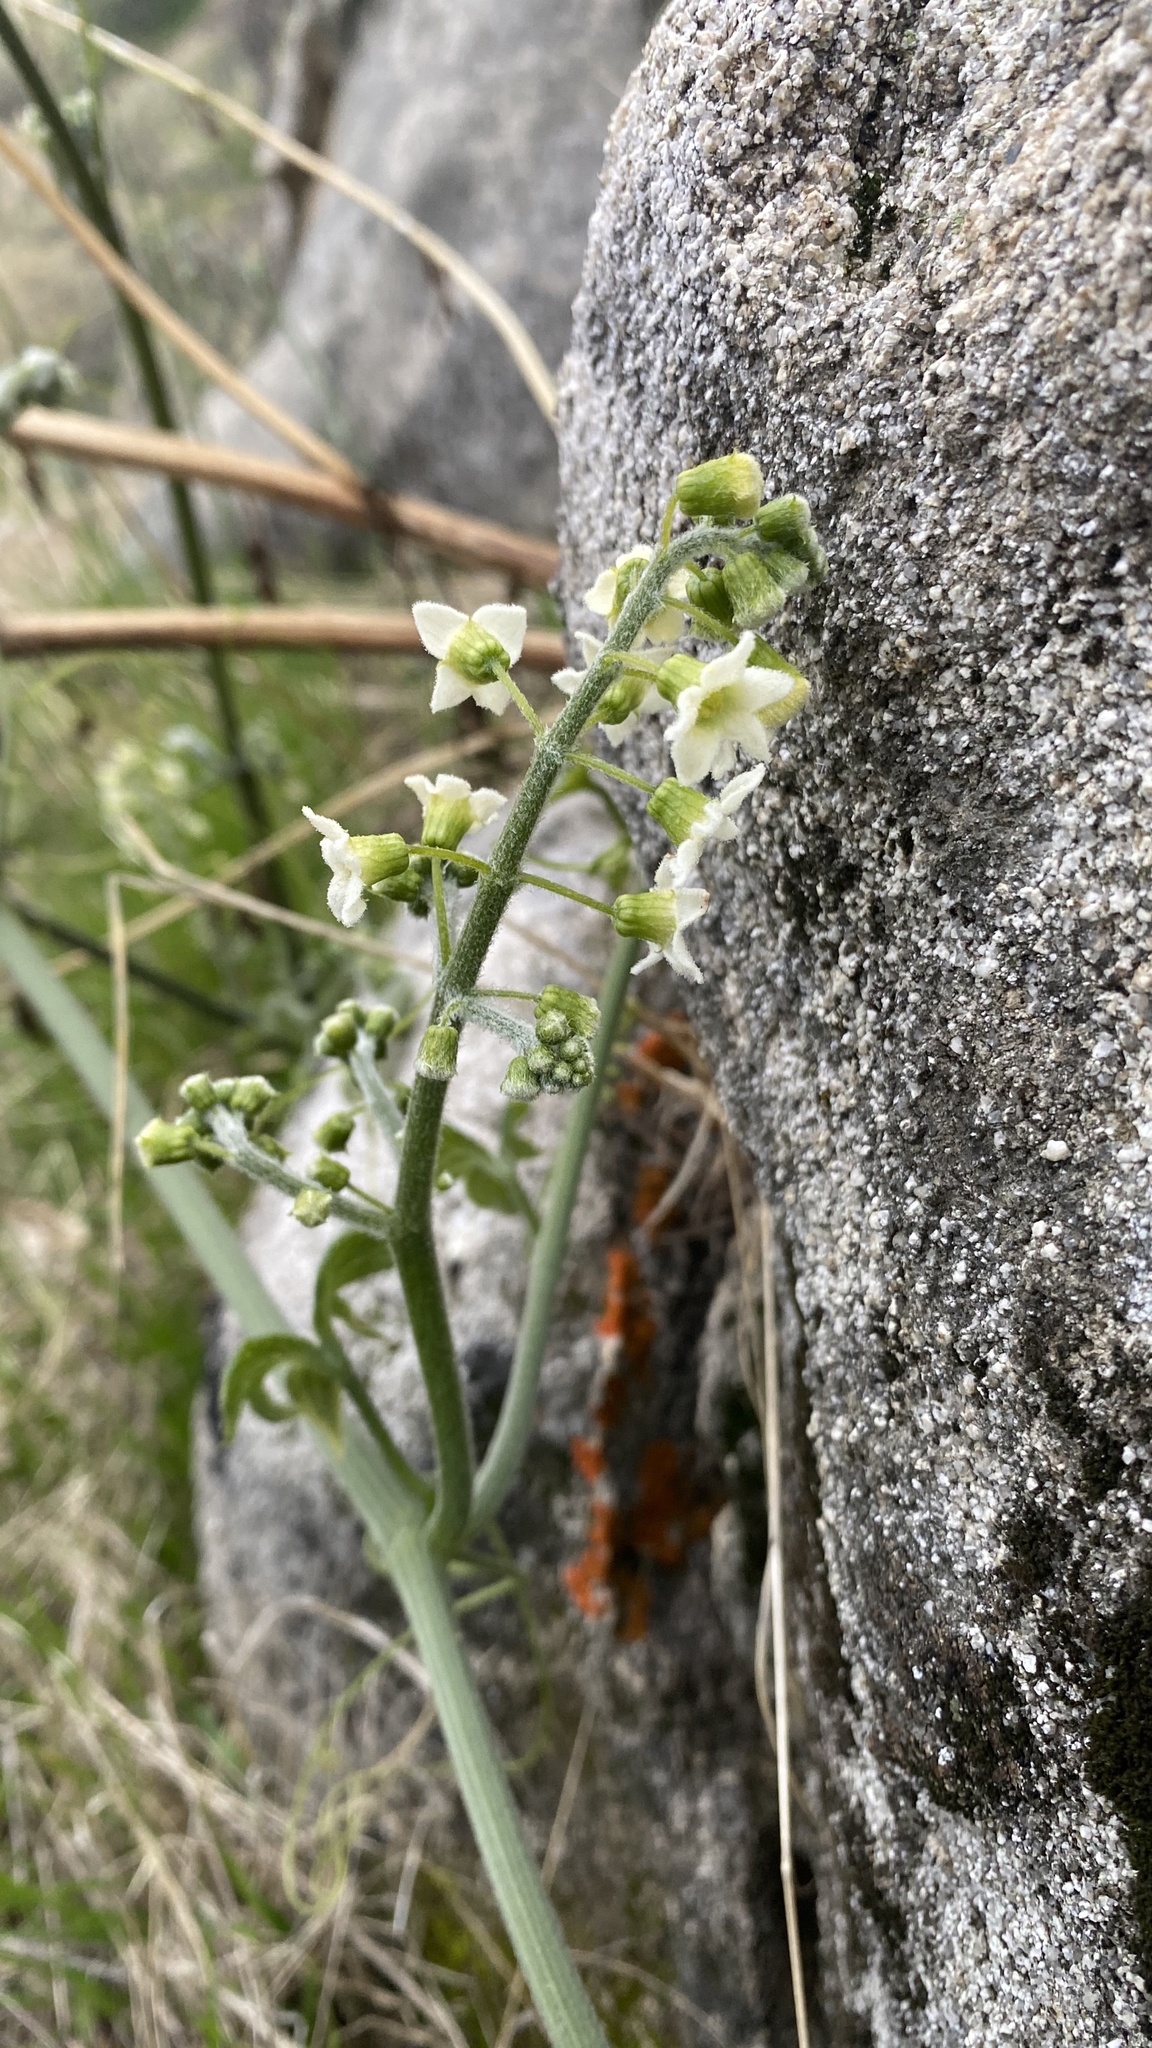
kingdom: Plantae
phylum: Tracheophyta
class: Magnoliopsida
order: Cucurbitales
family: Cucurbitaceae
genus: Marah
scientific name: Marah horrida
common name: Sierra manroot
